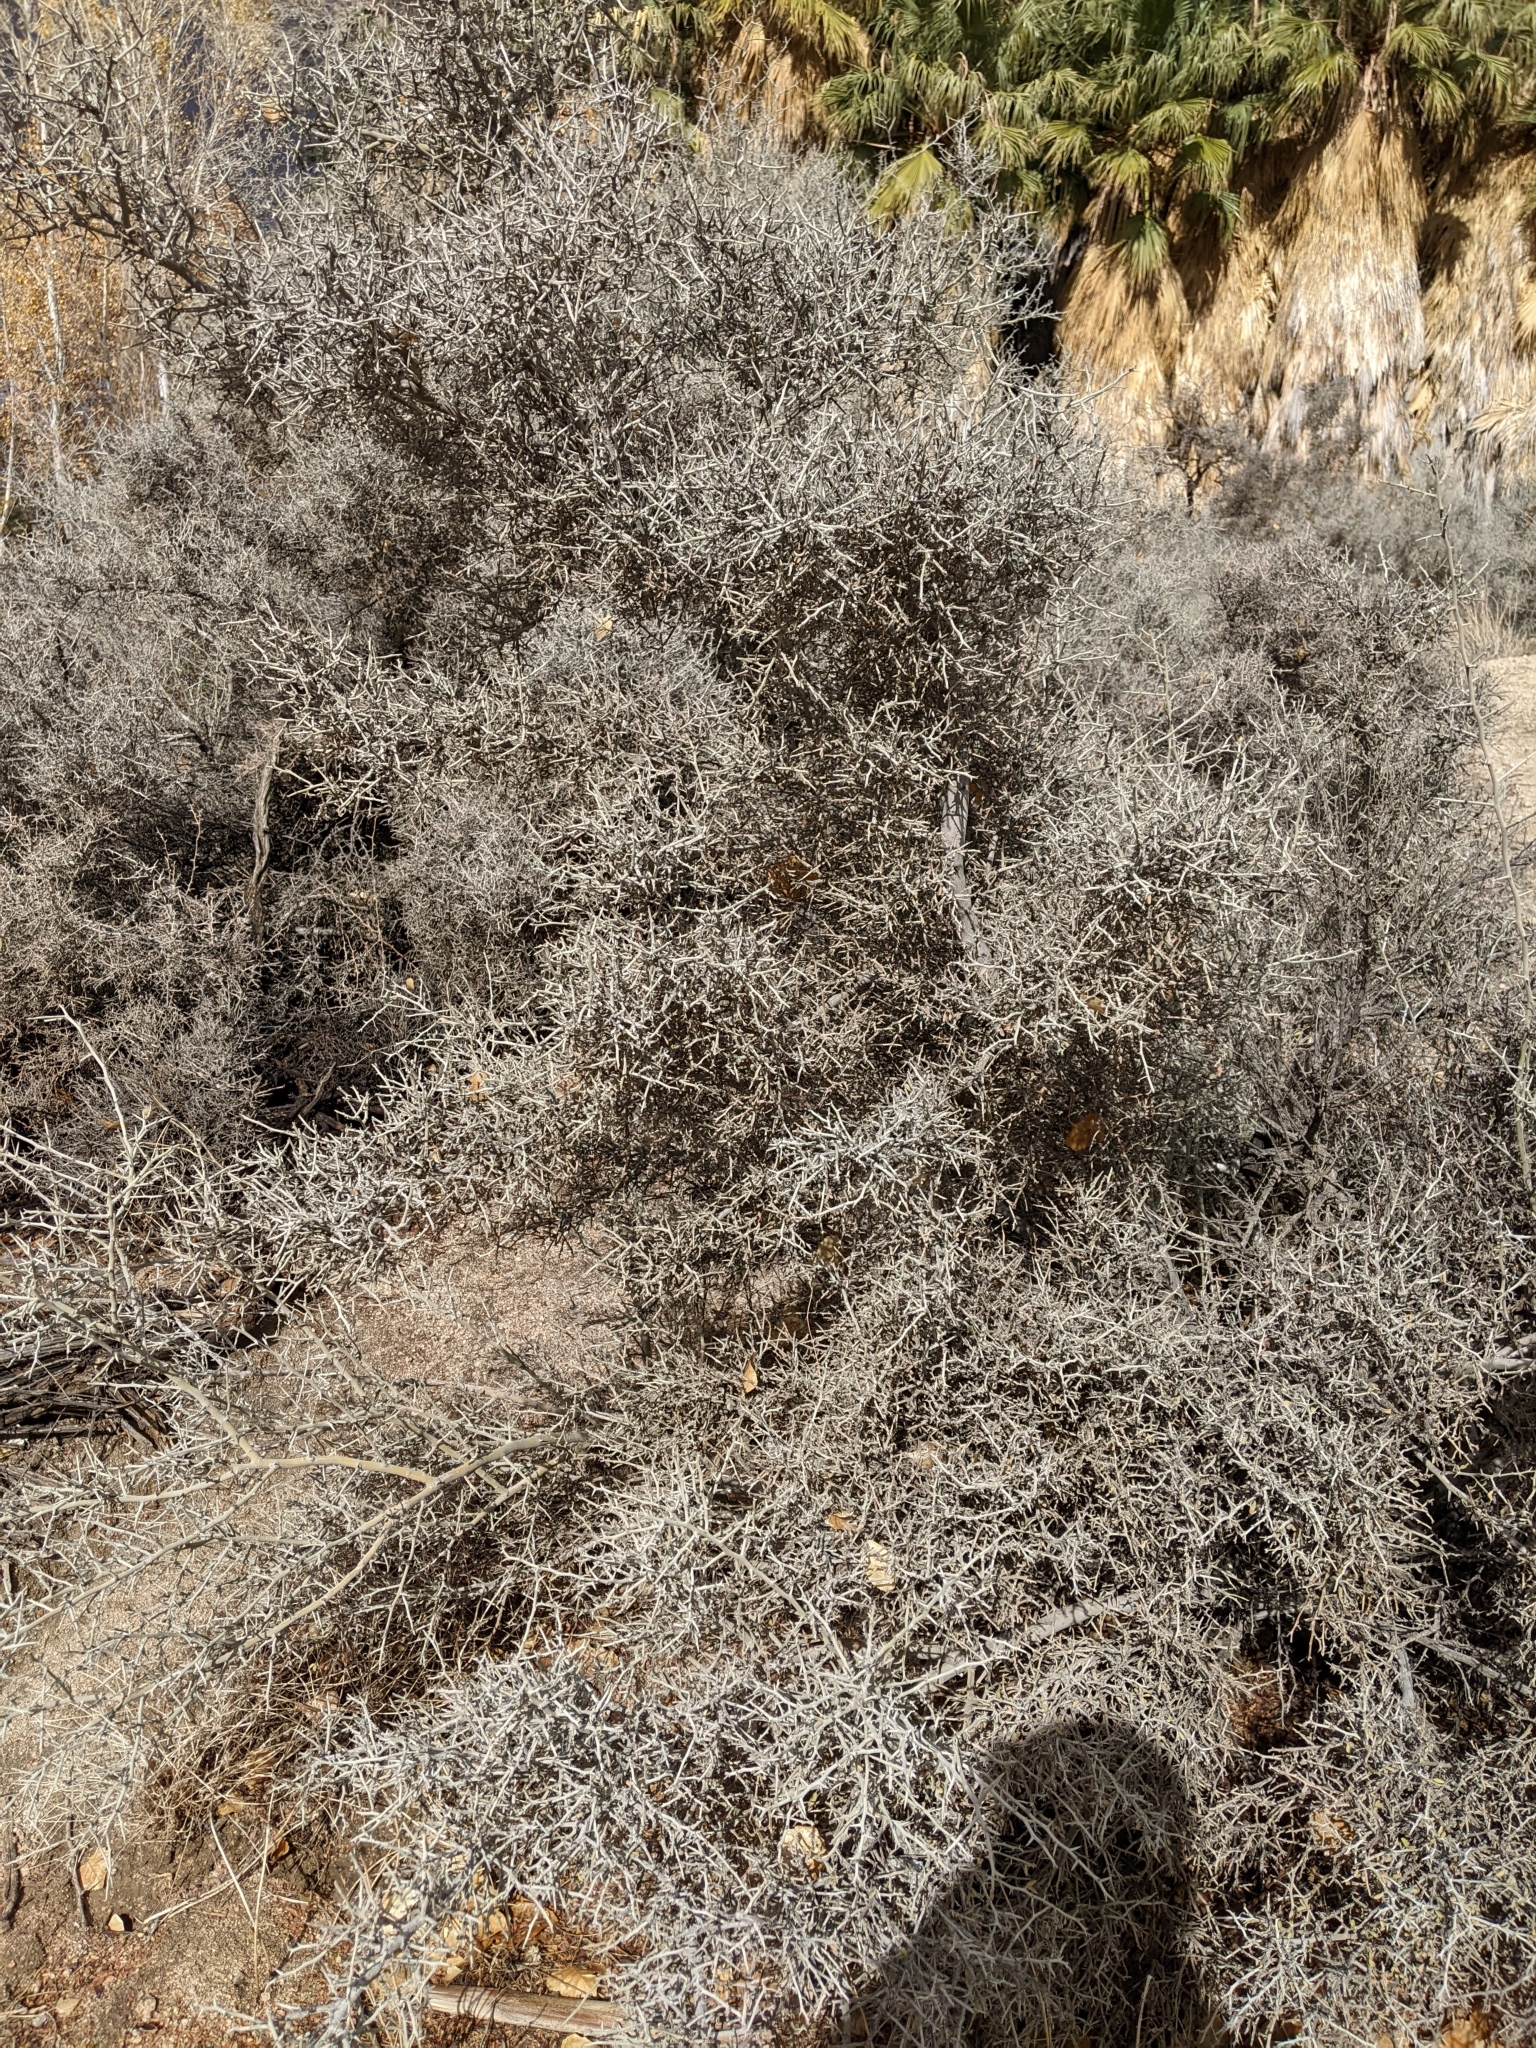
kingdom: Plantae
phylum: Tracheophyta
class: Magnoliopsida
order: Rosales
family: Rhamnaceae
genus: Sarcomphalus
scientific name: Sarcomphalus obtusifolius
